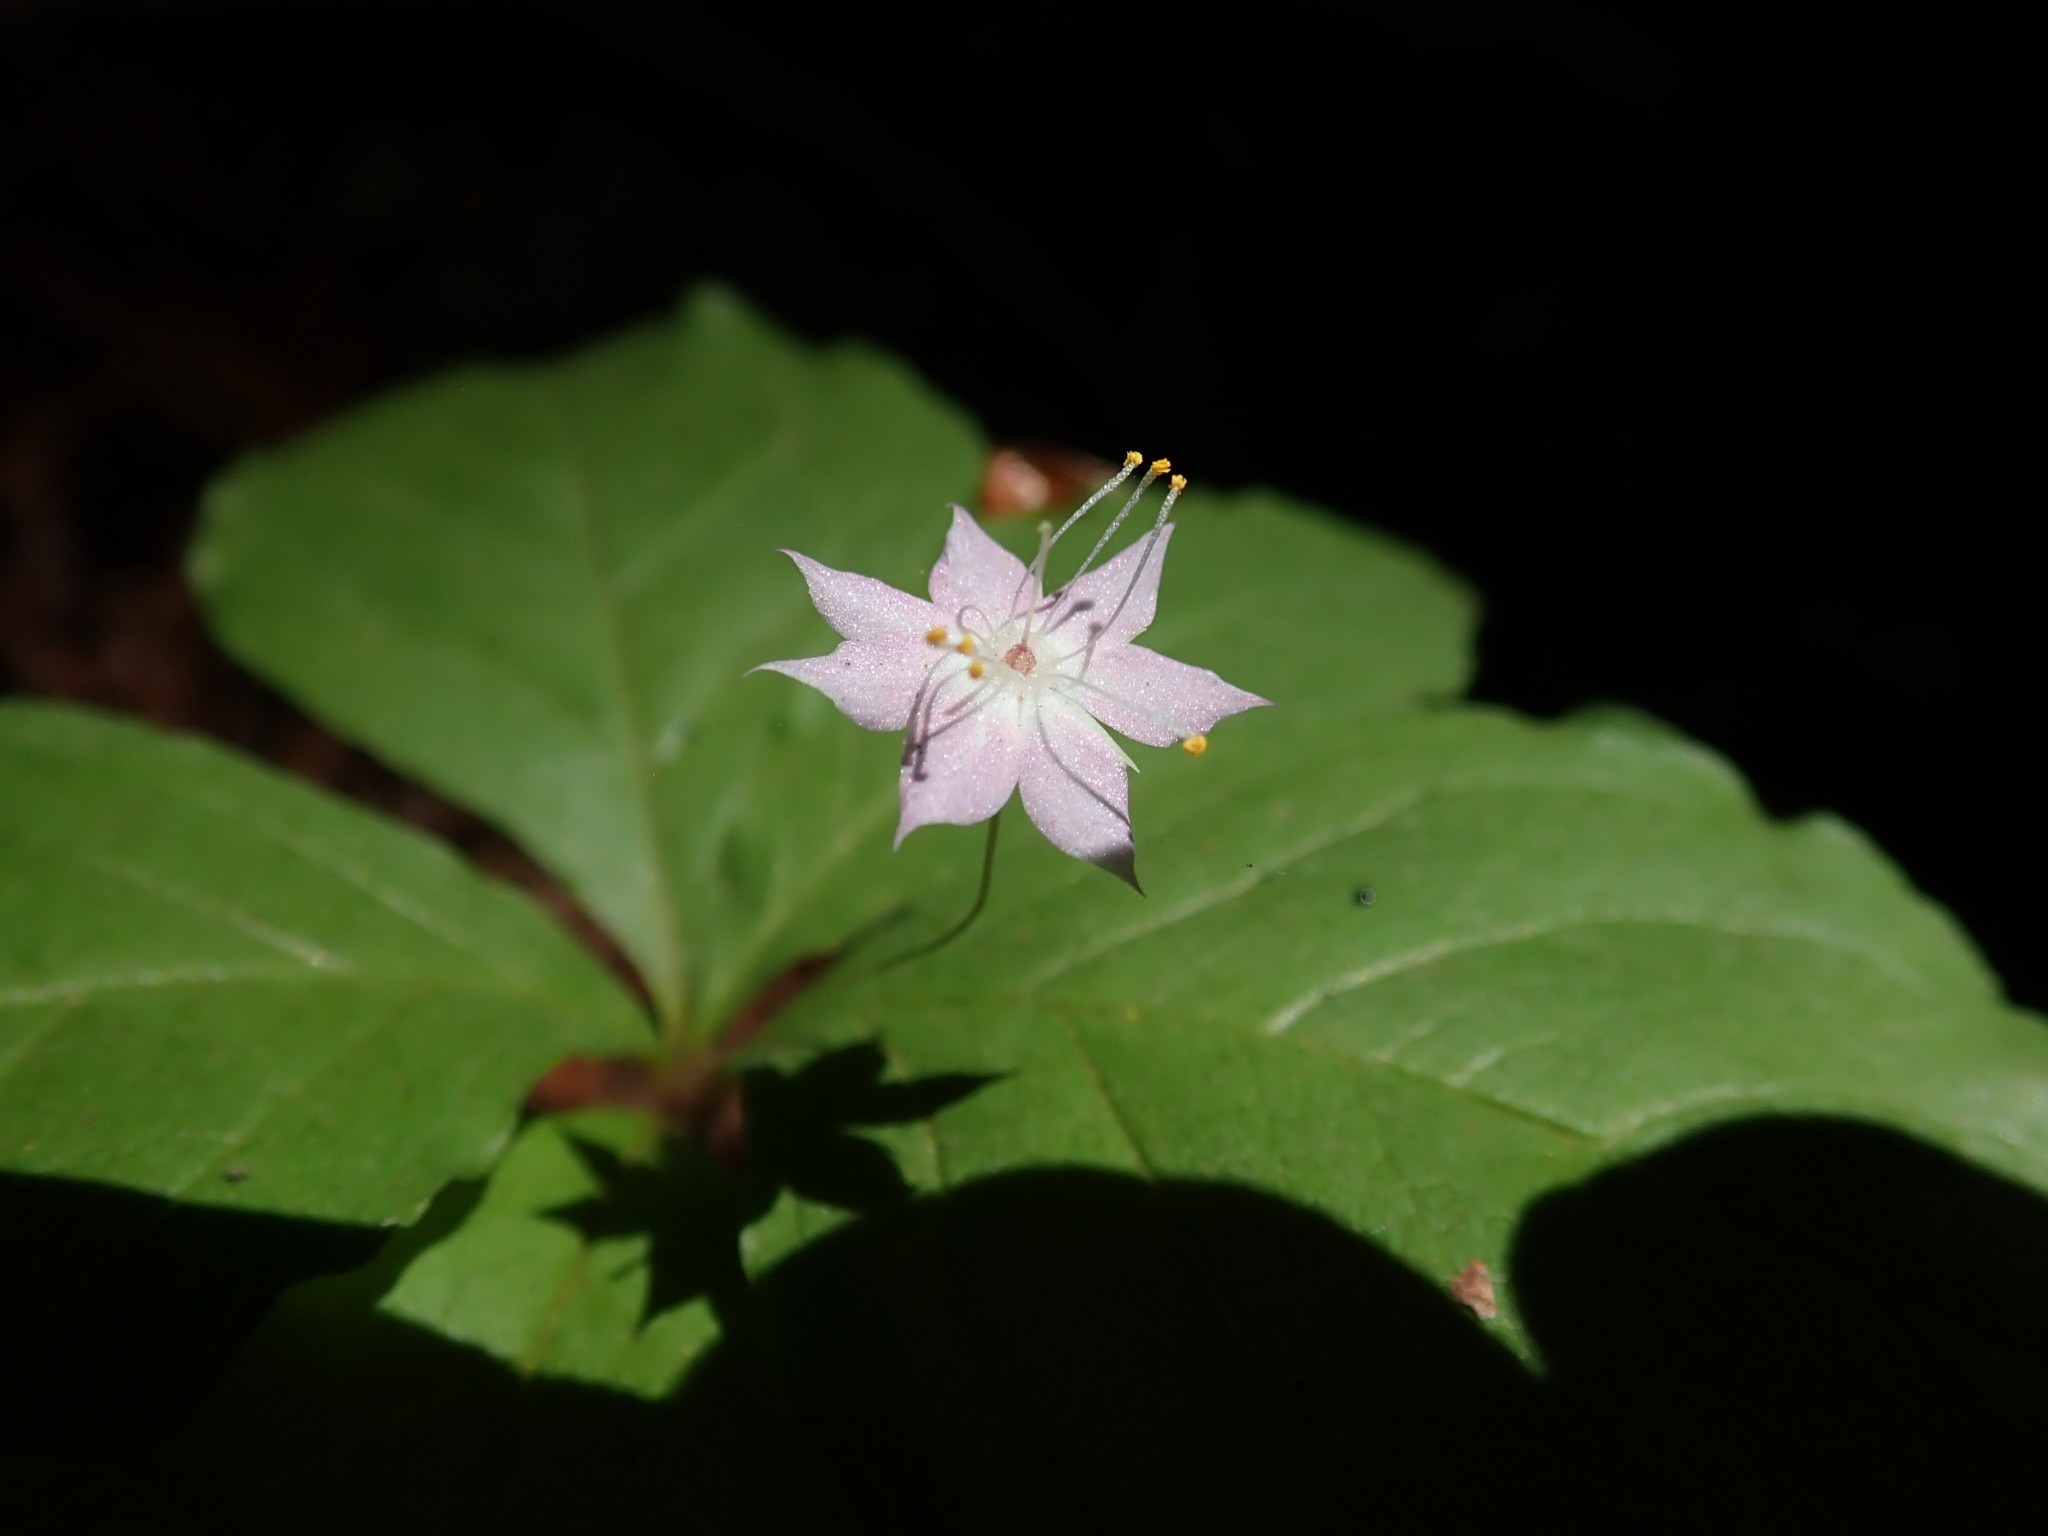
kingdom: Plantae
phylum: Tracheophyta
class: Magnoliopsida
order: Ericales
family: Primulaceae
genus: Lysimachia
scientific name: Lysimachia latifolia
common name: Pacific starflower
